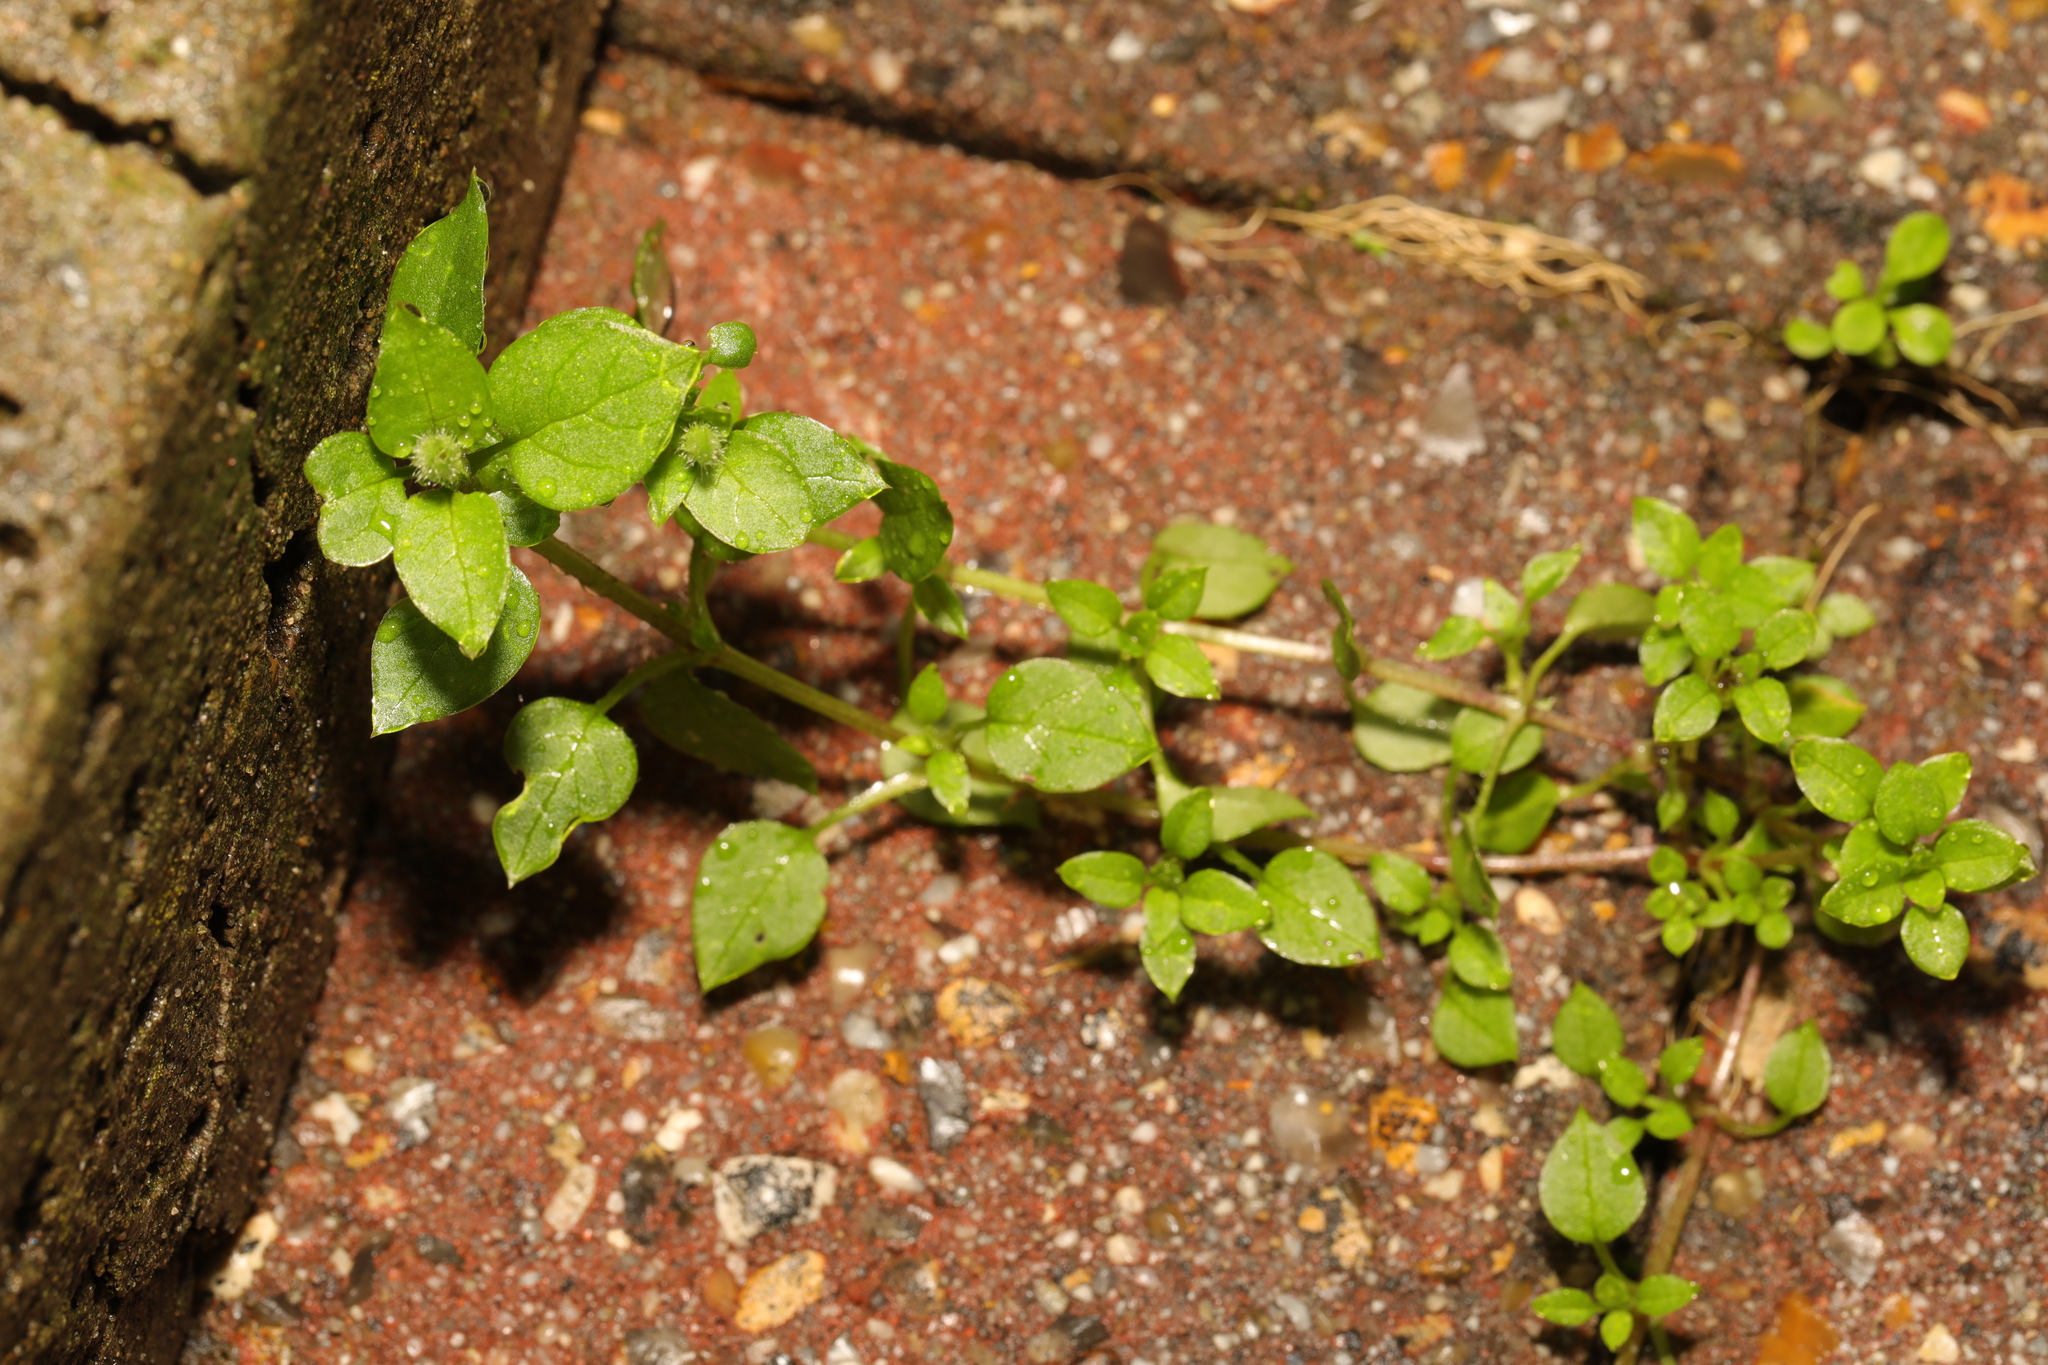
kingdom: Plantae
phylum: Tracheophyta
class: Magnoliopsida
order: Caryophyllales
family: Caryophyllaceae
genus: Stellaria
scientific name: Stellaria media
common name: Common chickweed
